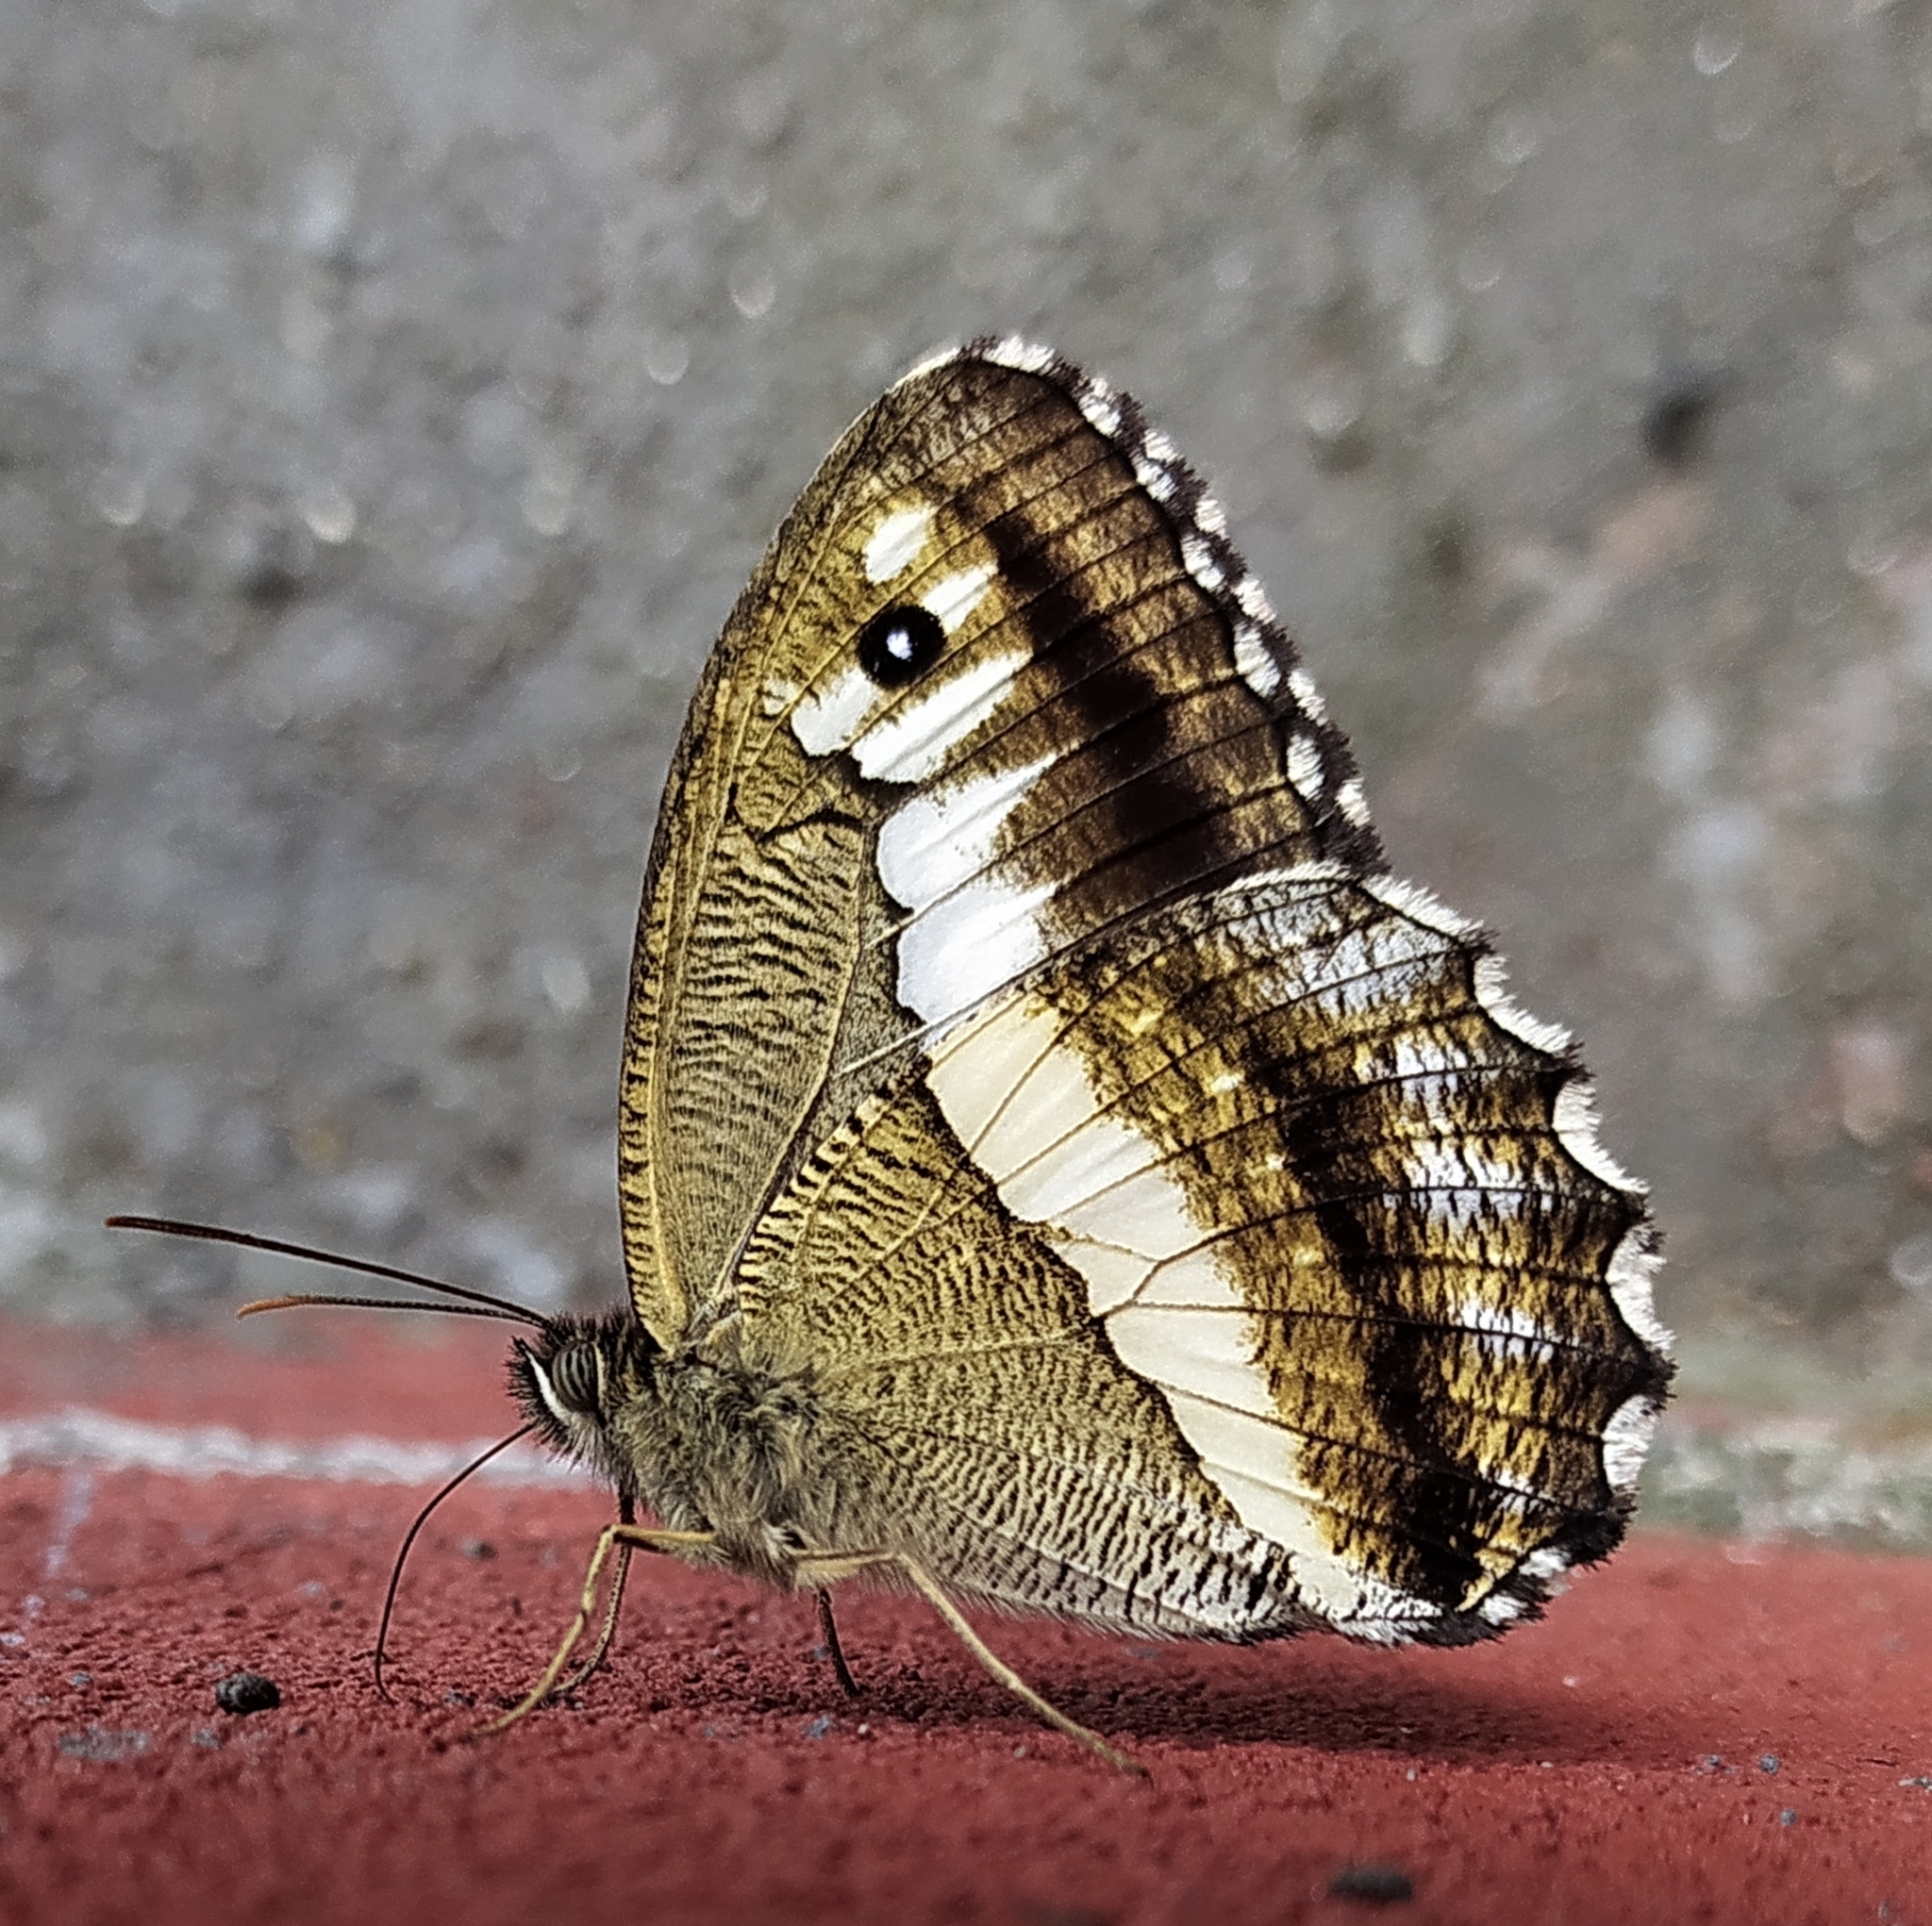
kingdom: Animalia
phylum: Arthropoda
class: Insecta
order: Lepidoptera
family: Nymphalidae
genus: Satyrus
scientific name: Satyrus
